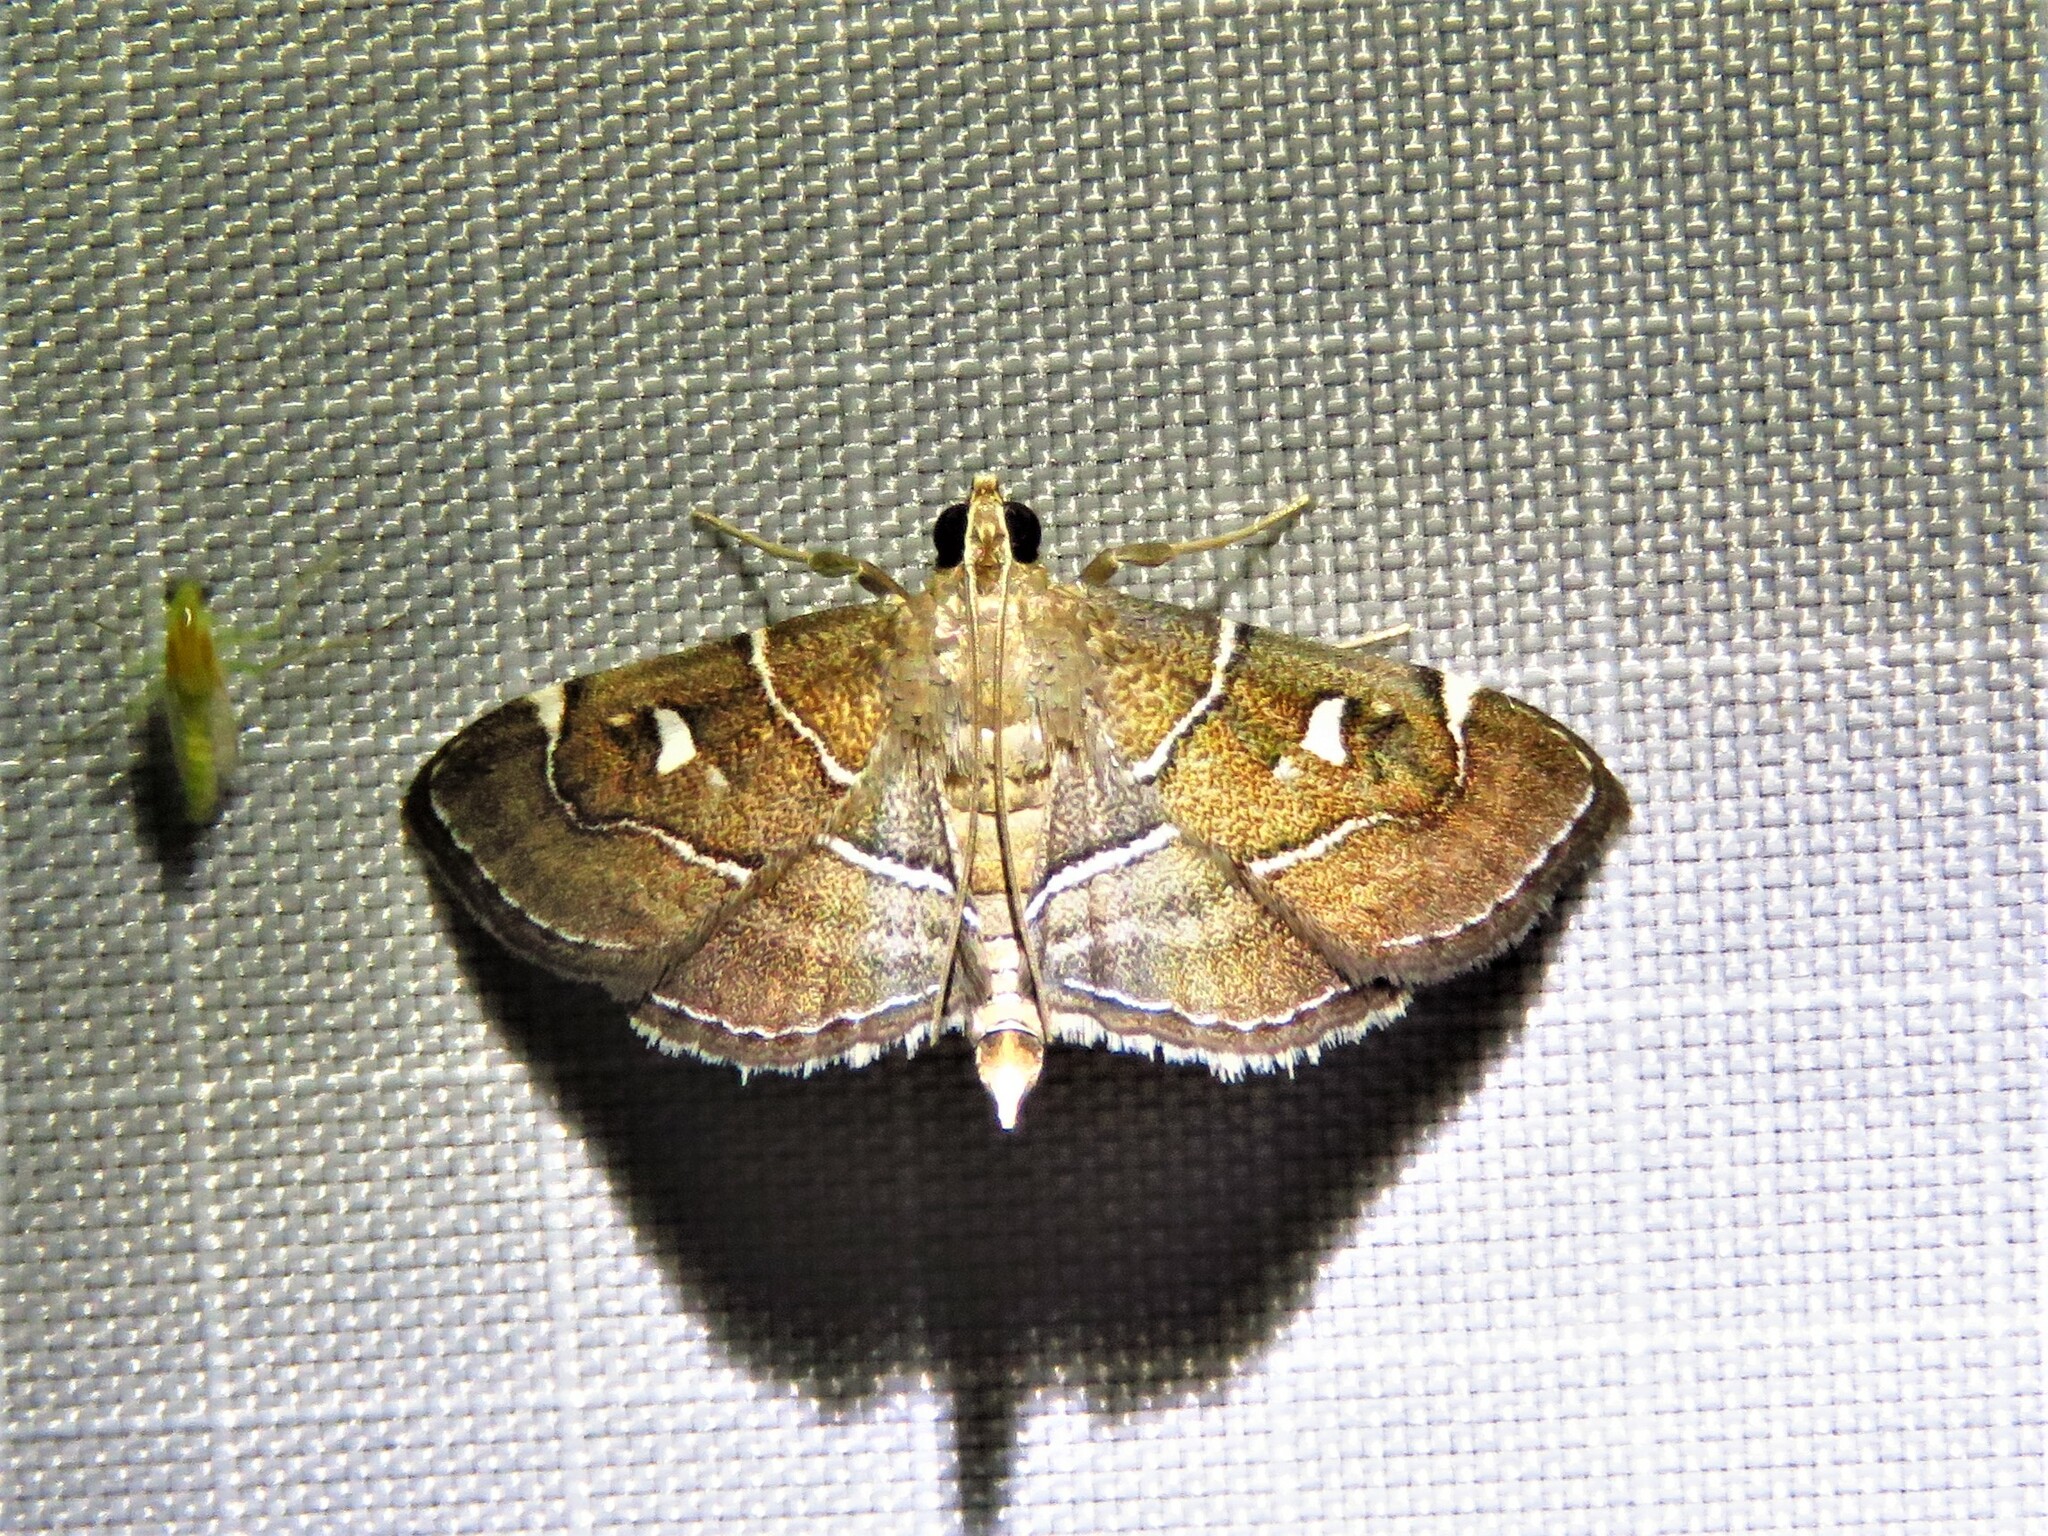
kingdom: Animalia
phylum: Arthropoda
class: Insecta
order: Lepidoptera
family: Crambidae
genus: Lamprosema
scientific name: Lamprosema victoriae
